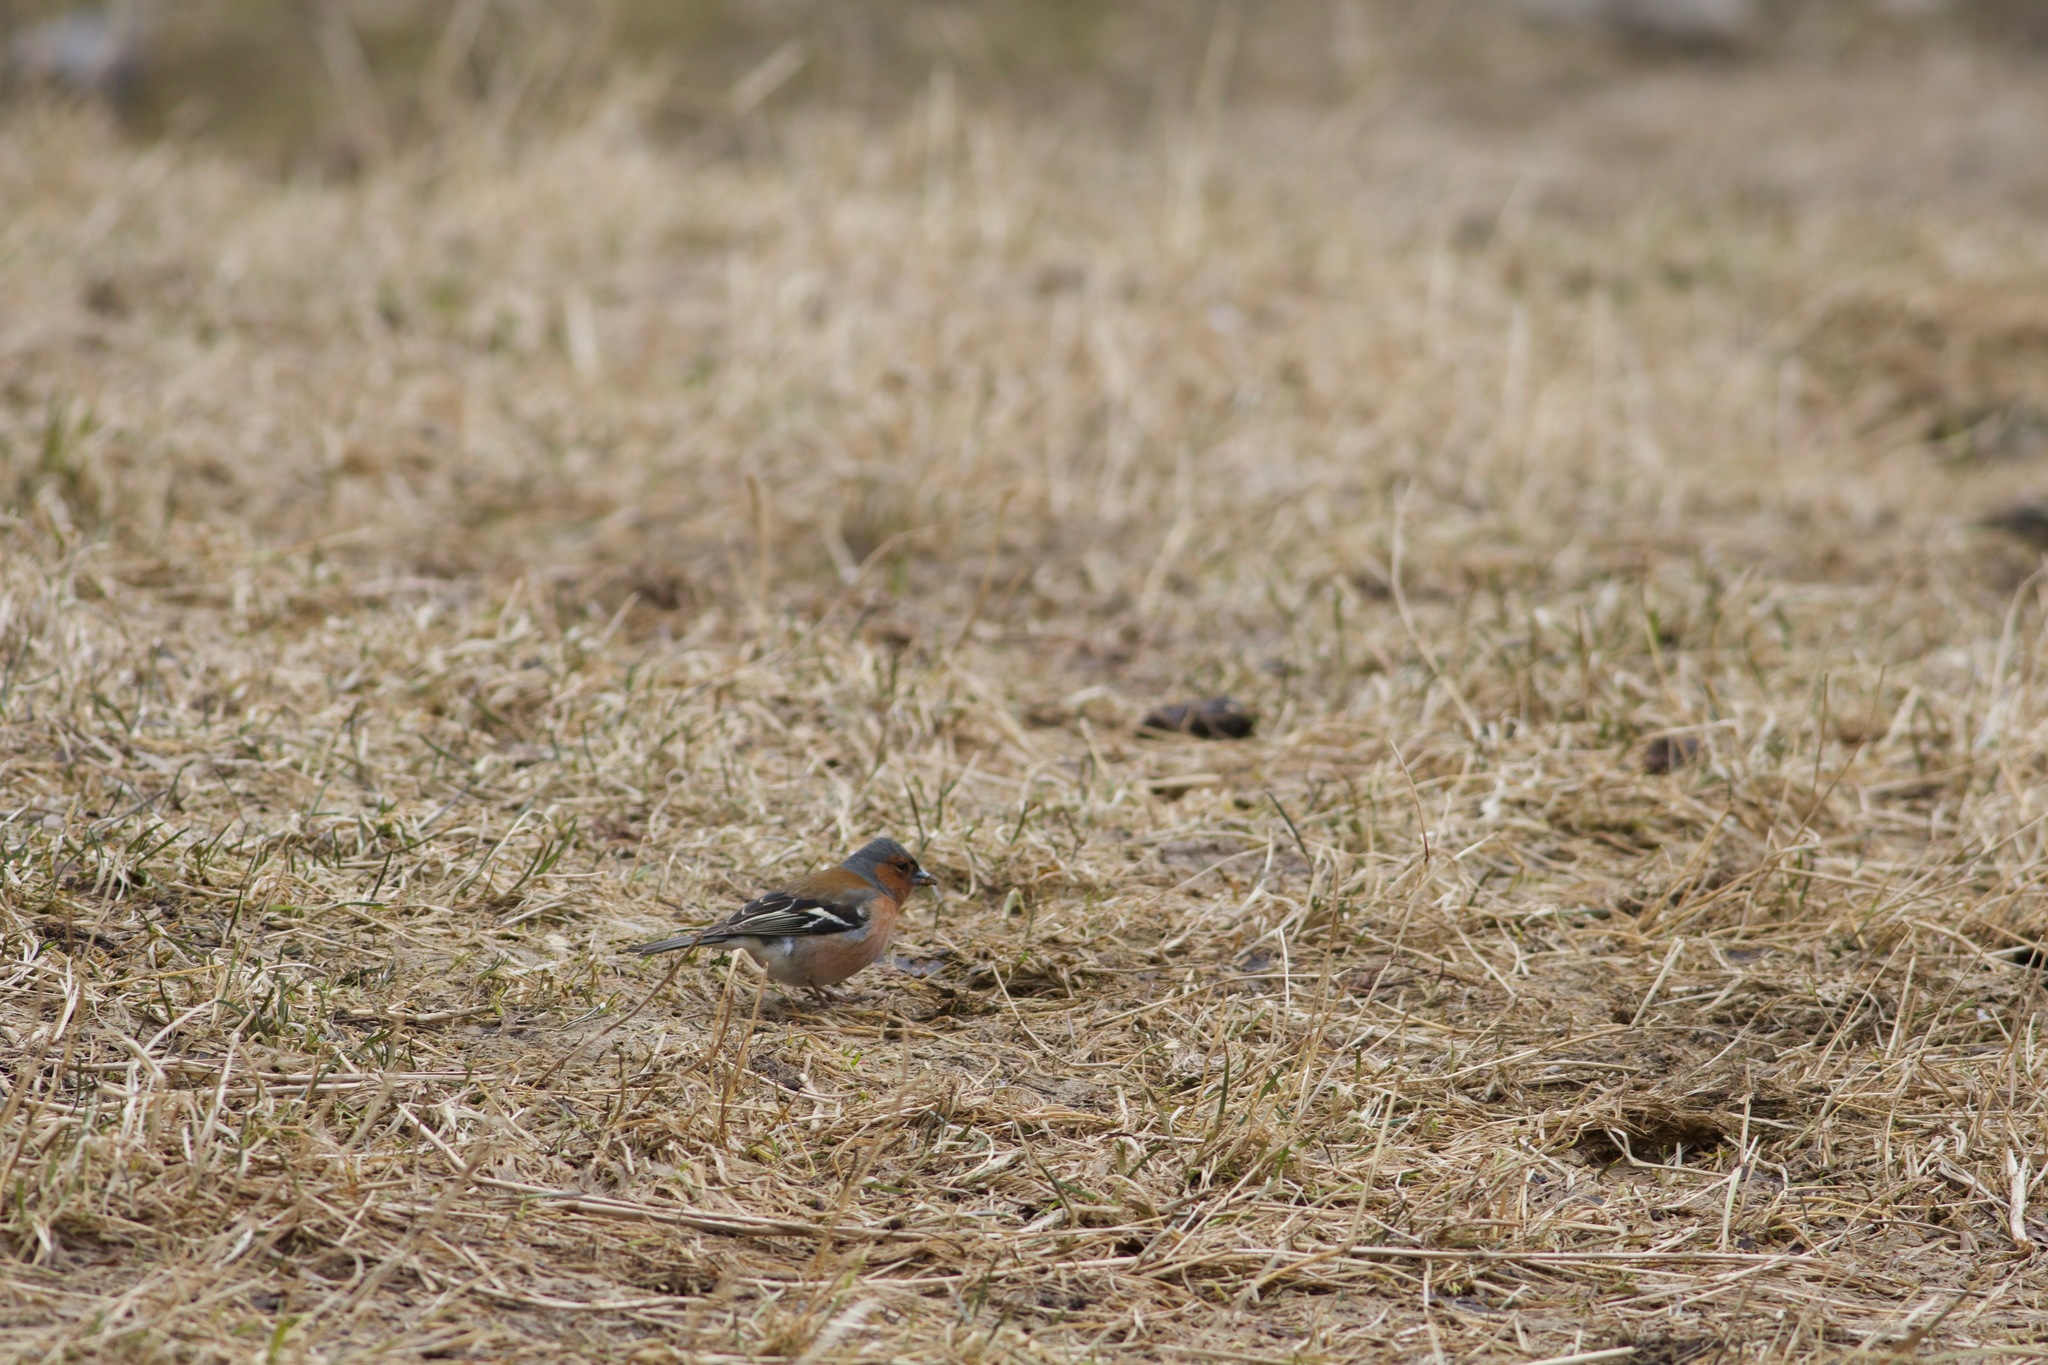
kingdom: Animalia
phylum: Chordata
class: Aves
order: Passeriformes
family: Fringillidae
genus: Fringilla
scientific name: Fringilla coelebs
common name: Common chaffinch
